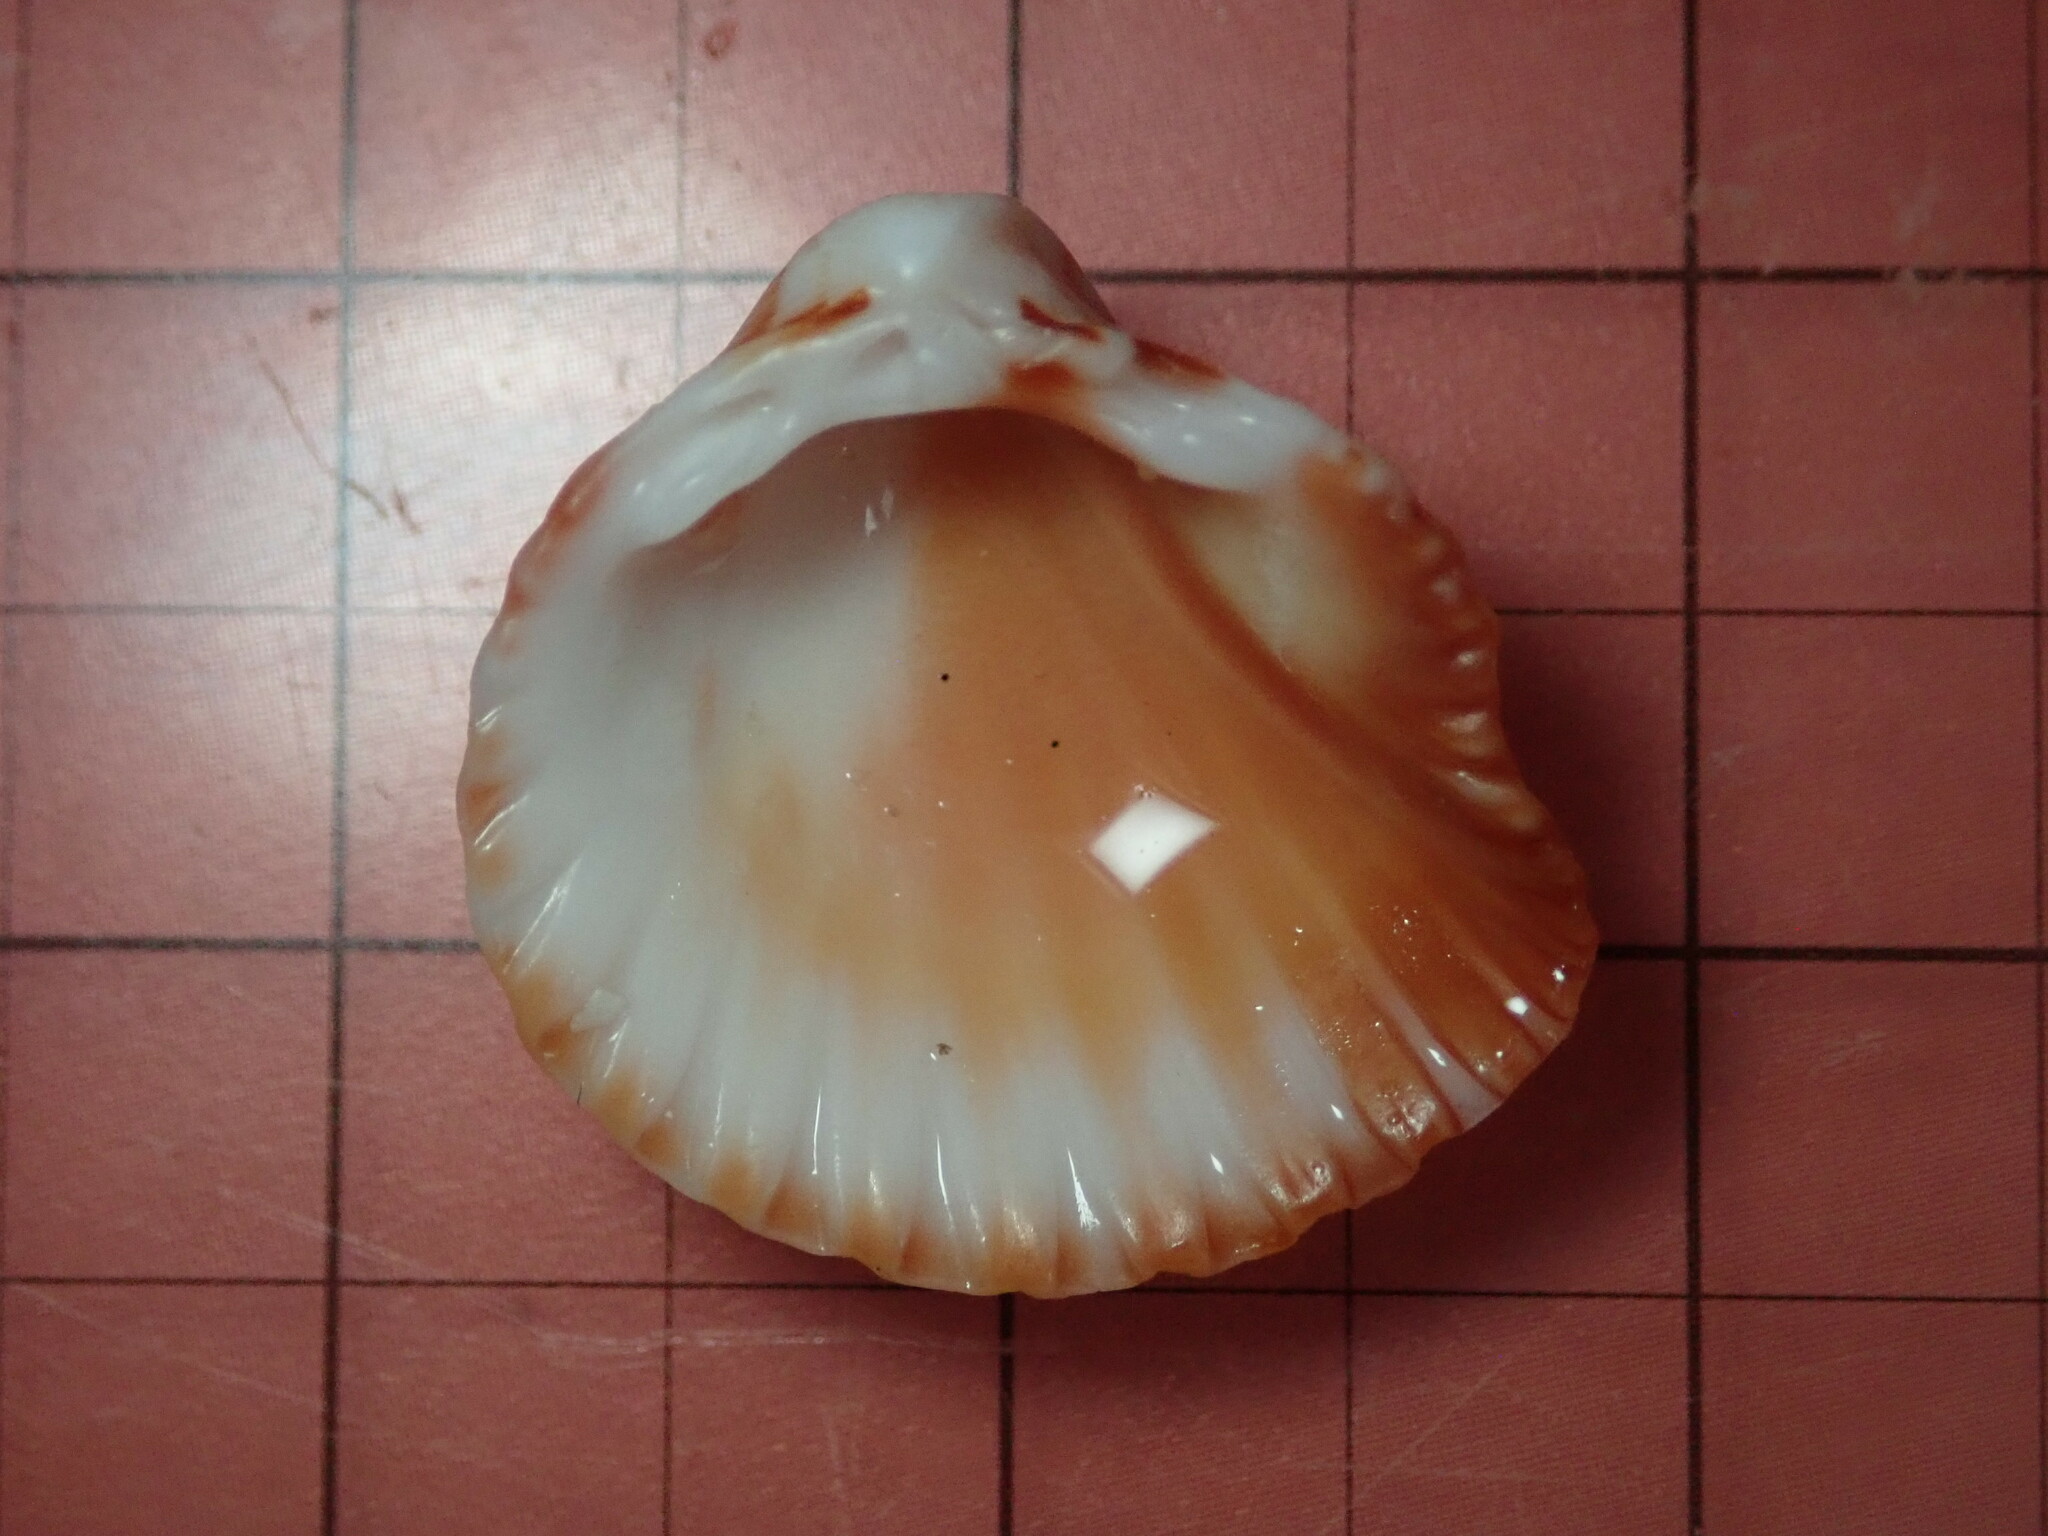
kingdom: Animalia
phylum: Mollusca
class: Bivalvia
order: Cardiida
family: Cardiidae
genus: Americardia
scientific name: Americardia biangulata
